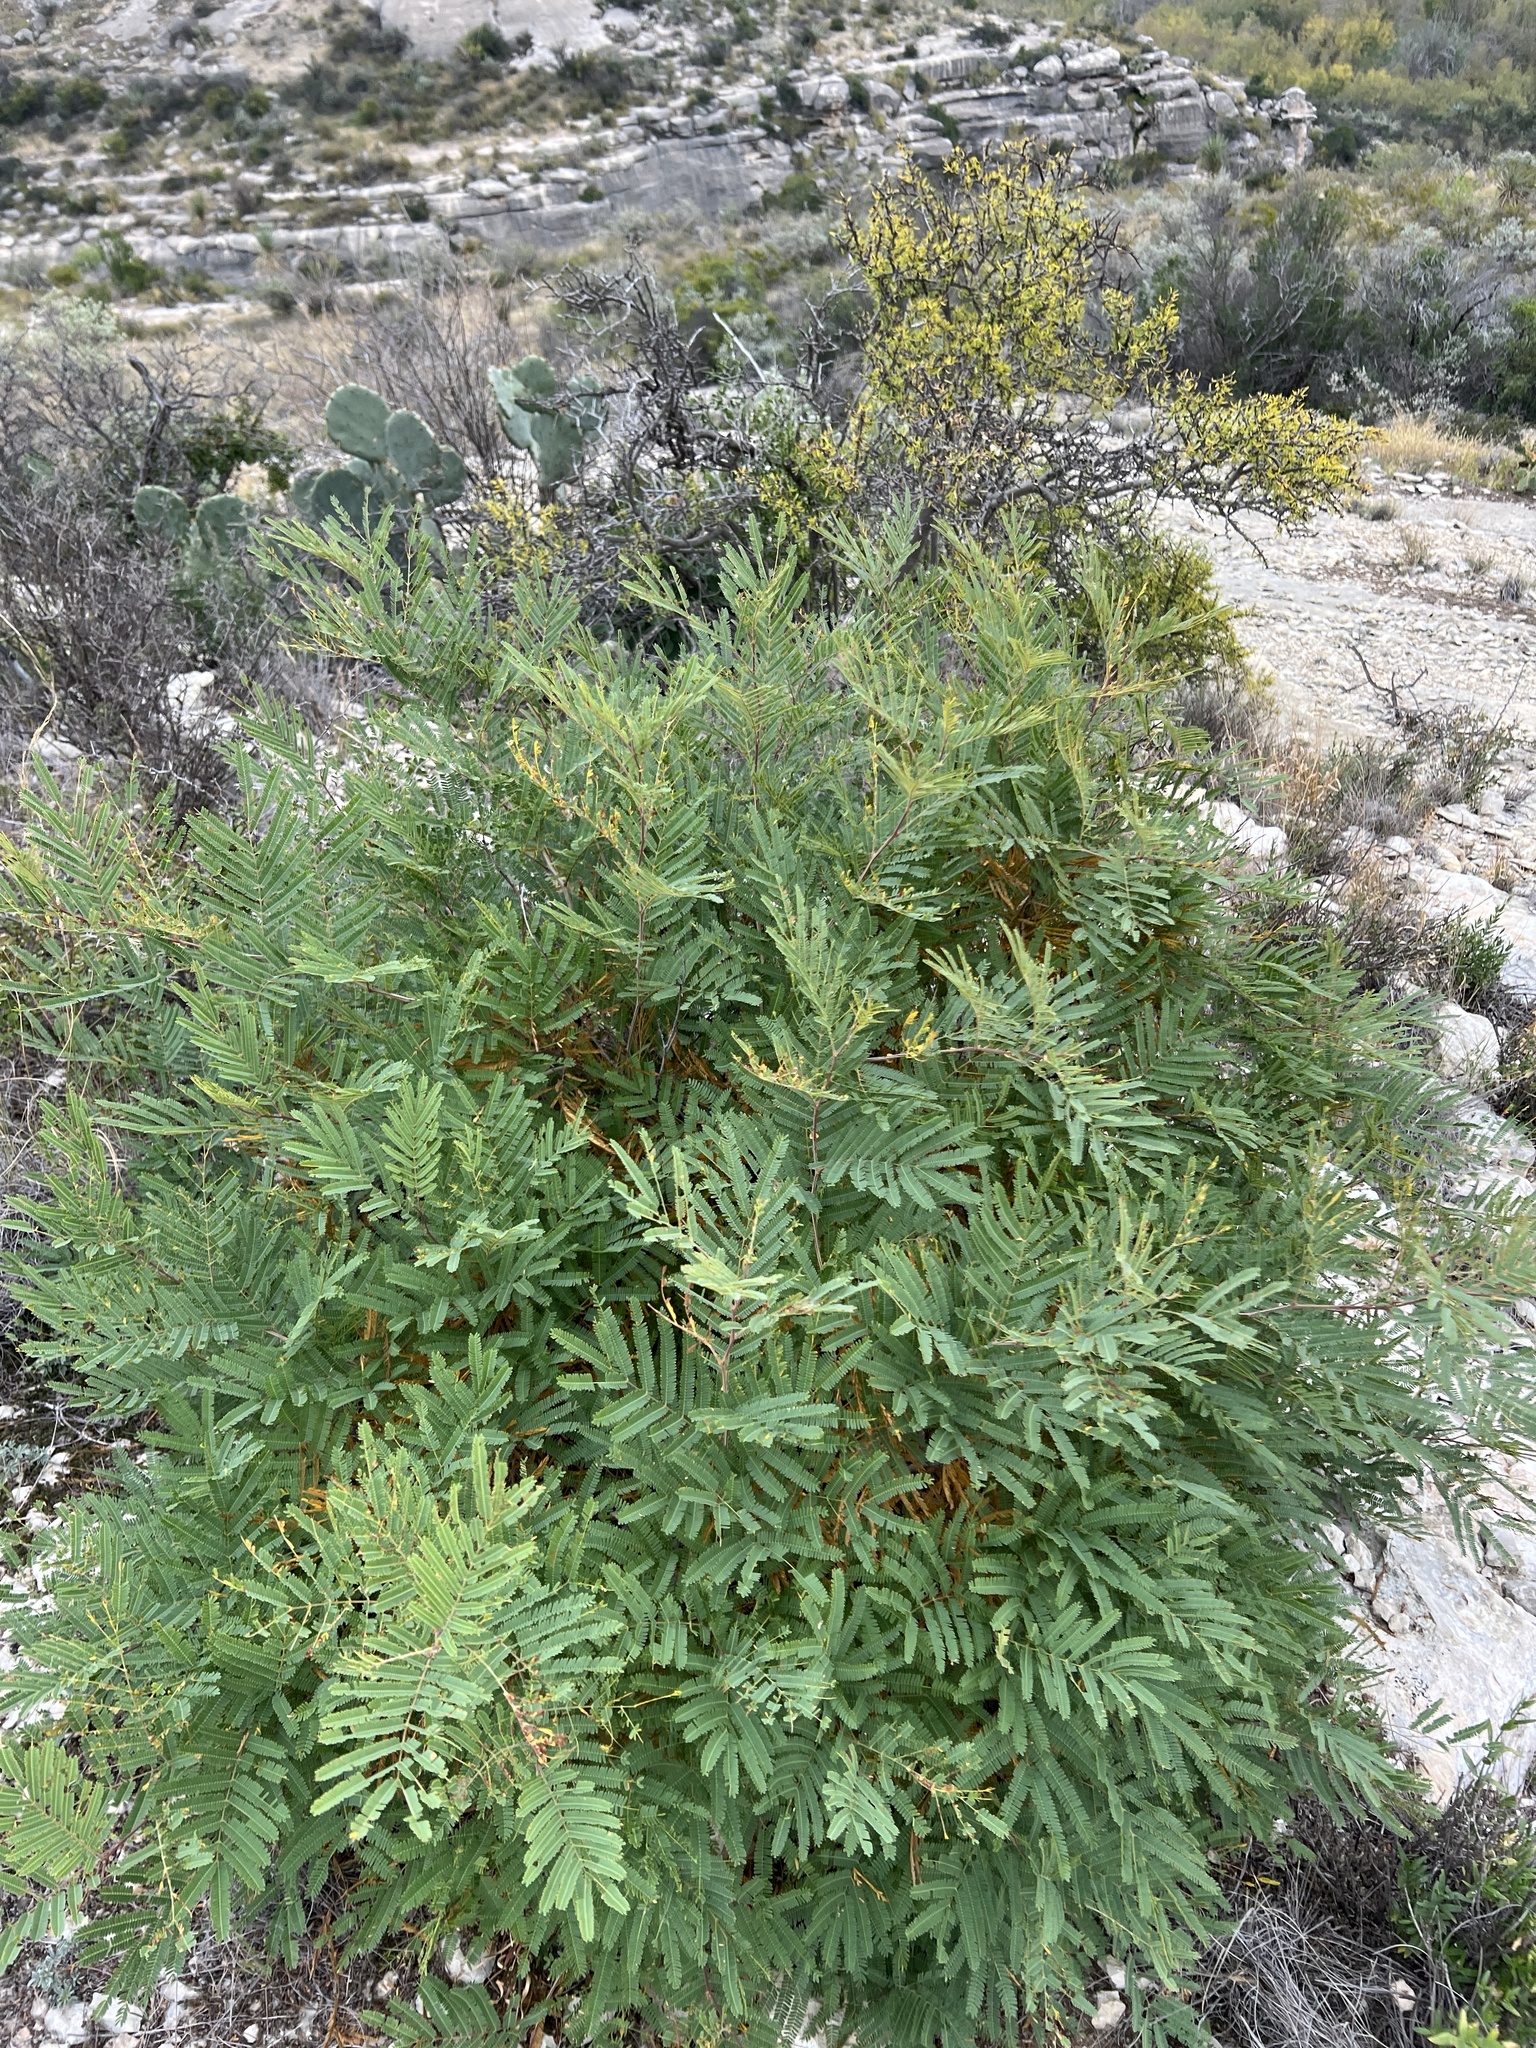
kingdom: Plantae
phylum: Tracheophyta
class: Magnoliopsida
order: Fabales
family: Fabaceae
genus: Senegalia
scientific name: Senegalia berlandieri
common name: Berlandier acacia
